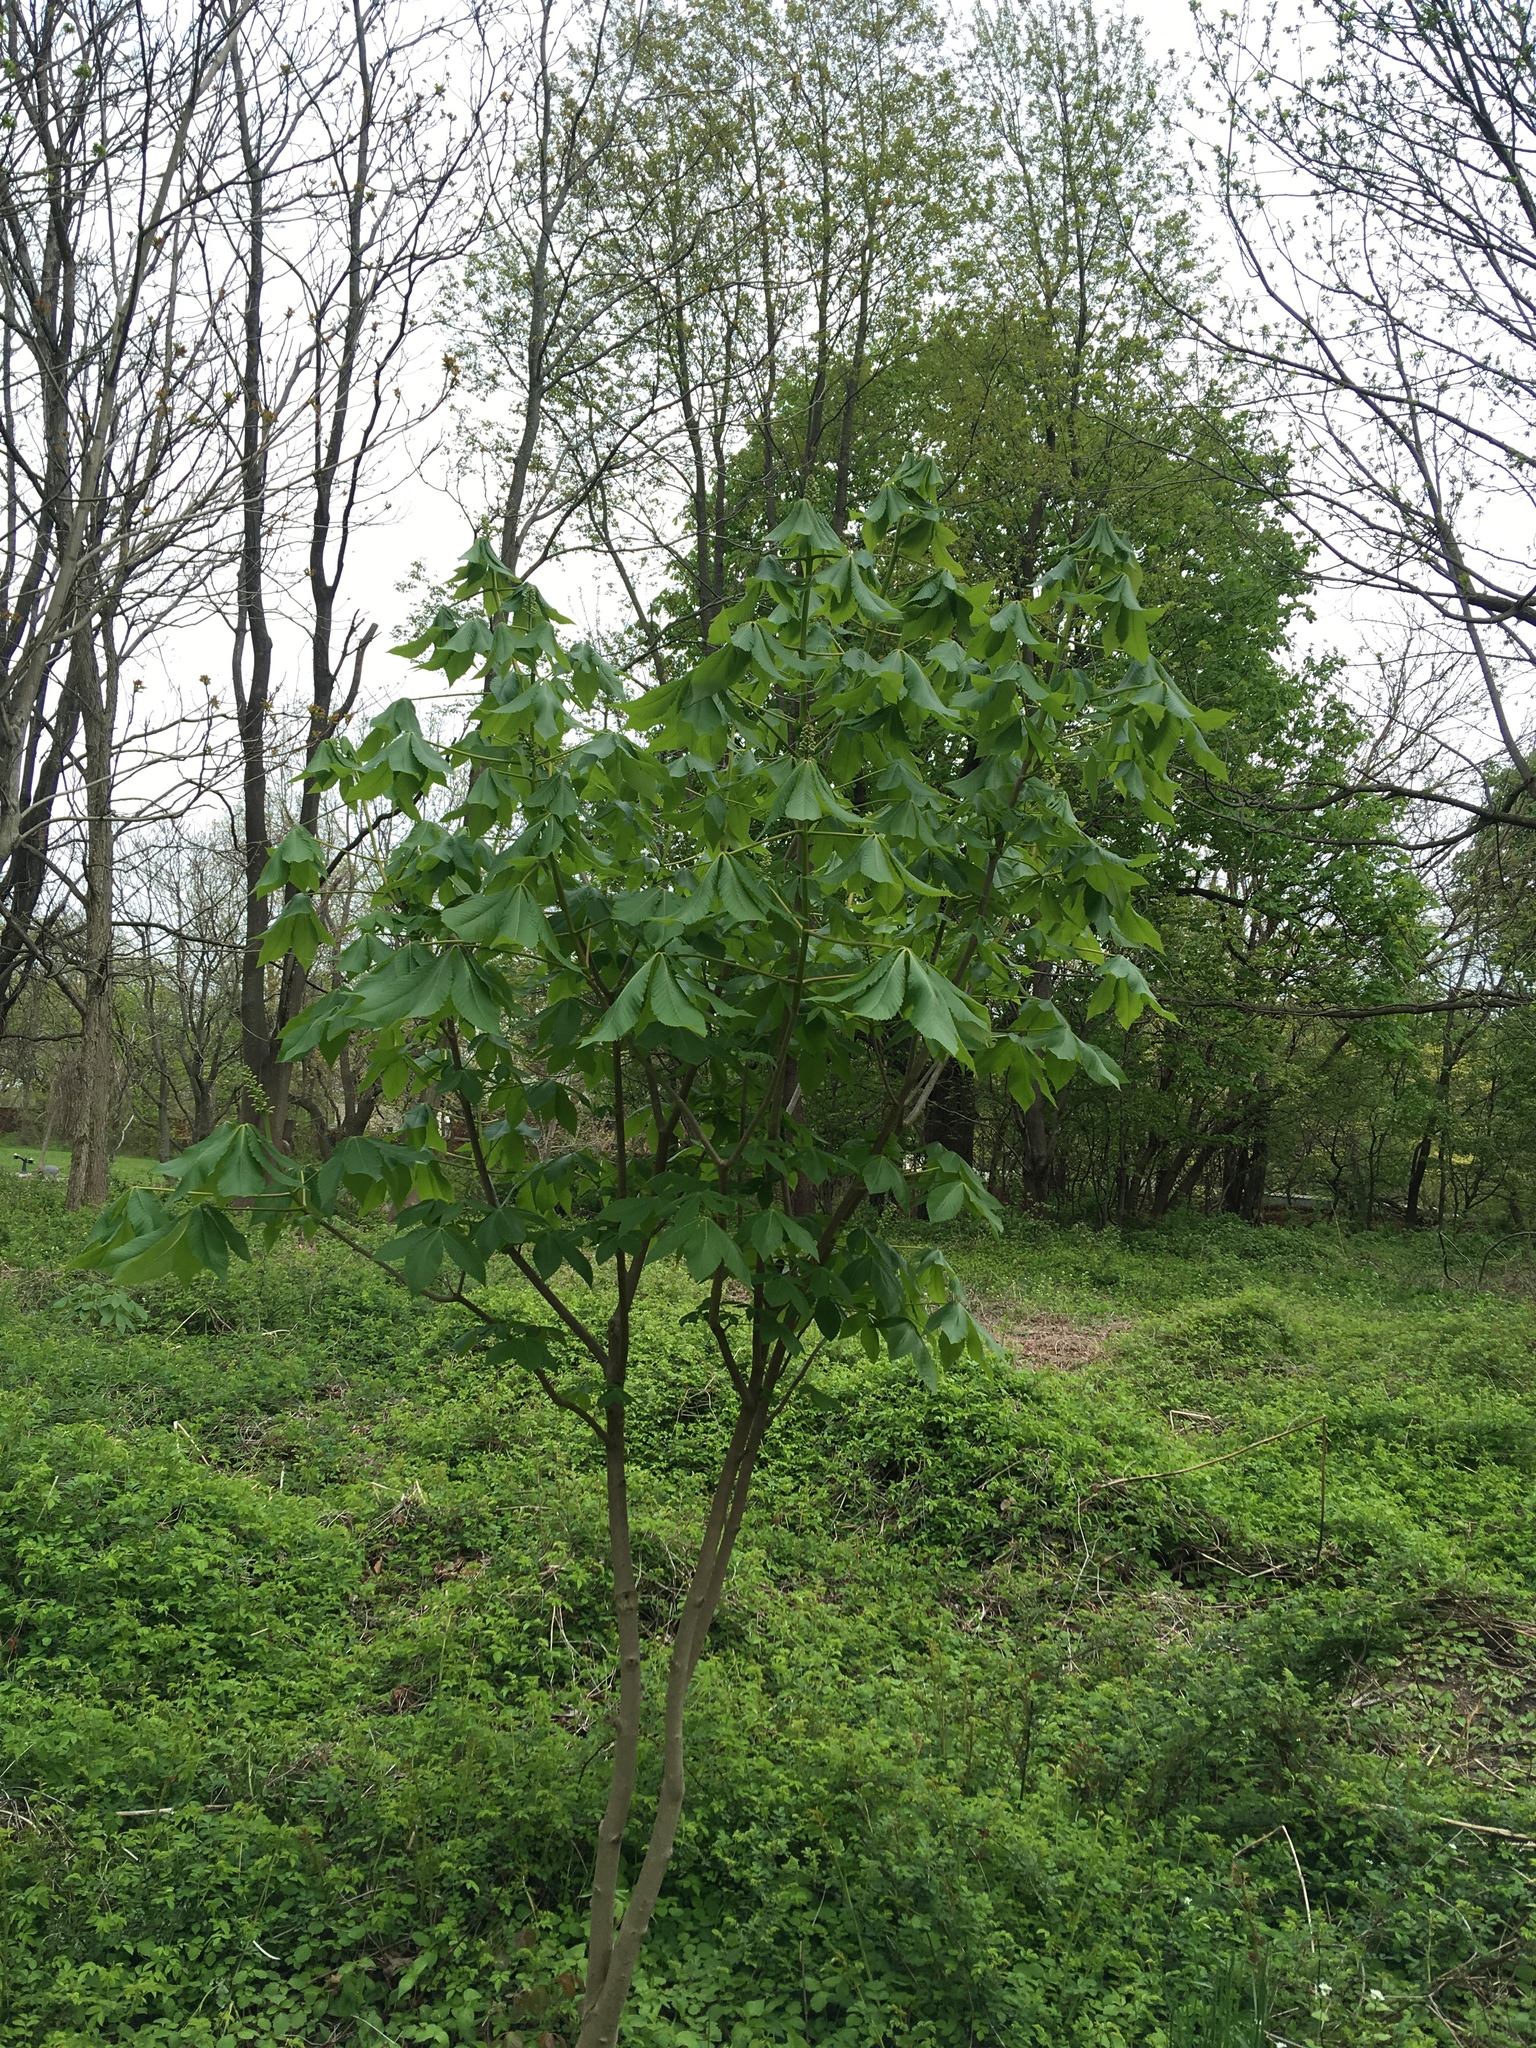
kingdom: Plantae
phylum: Tracheophyta
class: Magnoliopsida
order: Sapindales
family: Sapindaceae
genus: Aesculus
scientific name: Aesculus glabra
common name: Ohio buckeye
